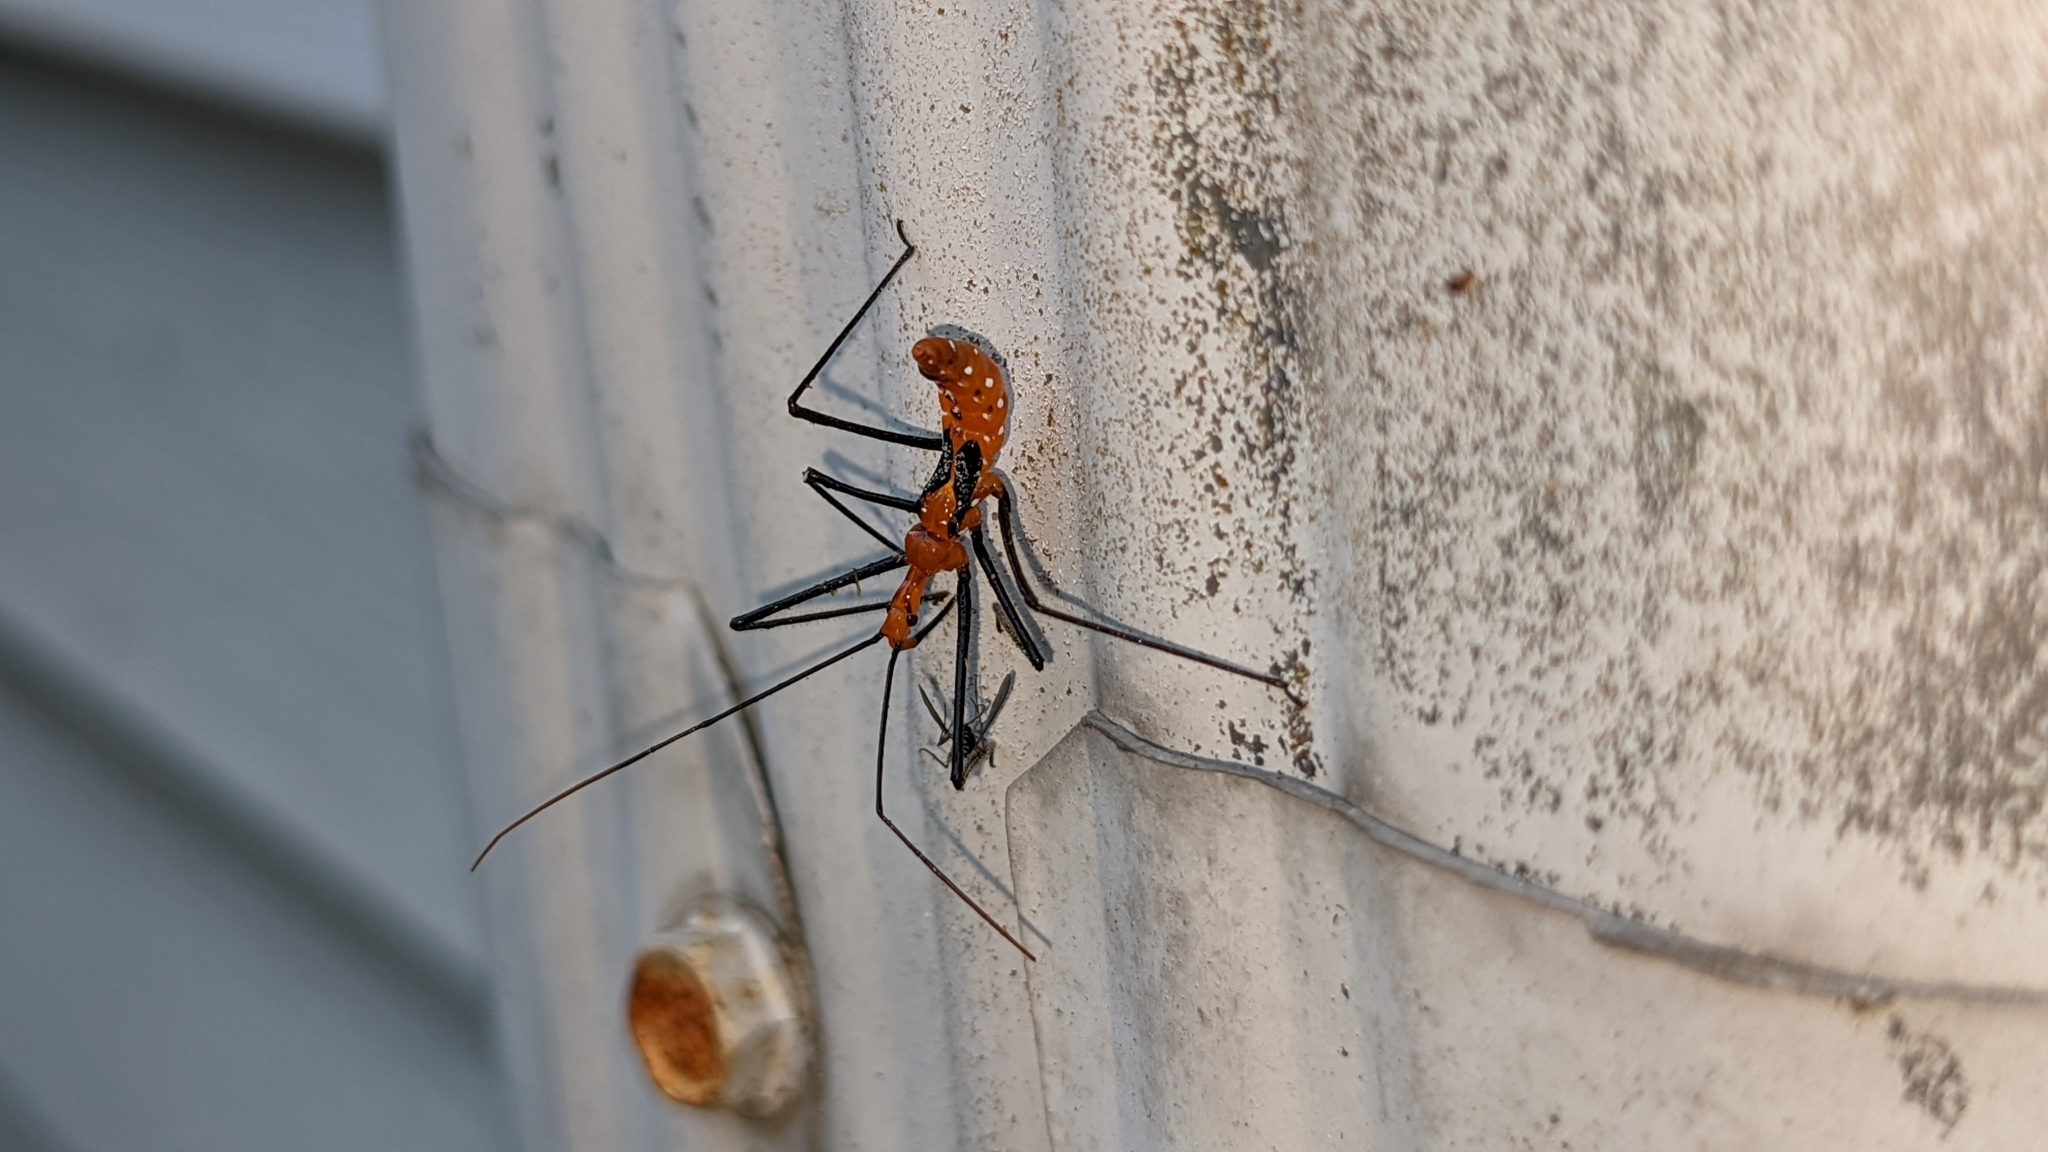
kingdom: Animalia
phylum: Arthropoda
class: Insecta
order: Hemiptera
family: Reduviidae
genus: Zelus
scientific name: Zelus longipes
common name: Milkweed assassin bug
